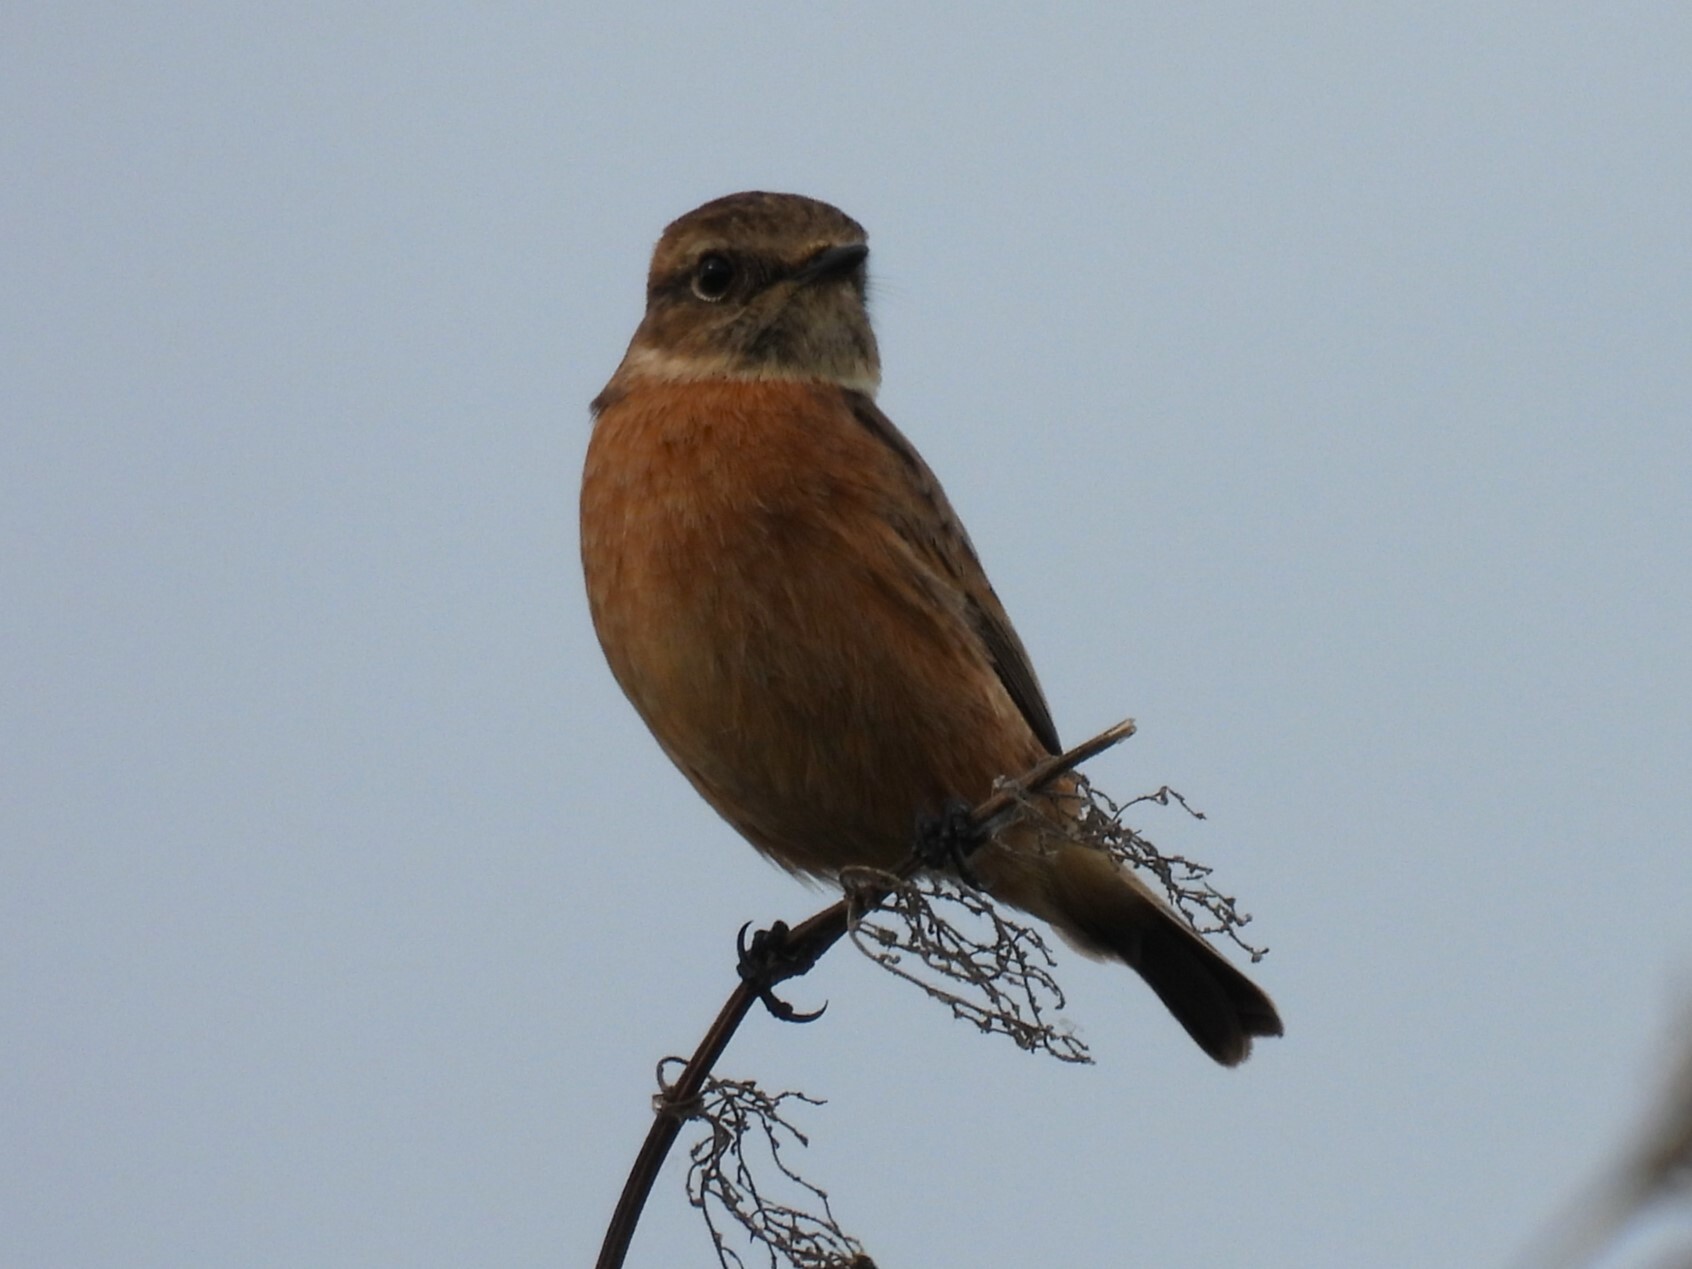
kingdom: Animalia
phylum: Chordata
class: Aves
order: Passeriformes
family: Muscicapidae
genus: Saxicola
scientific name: Saxicola rubicola
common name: European stonechat
